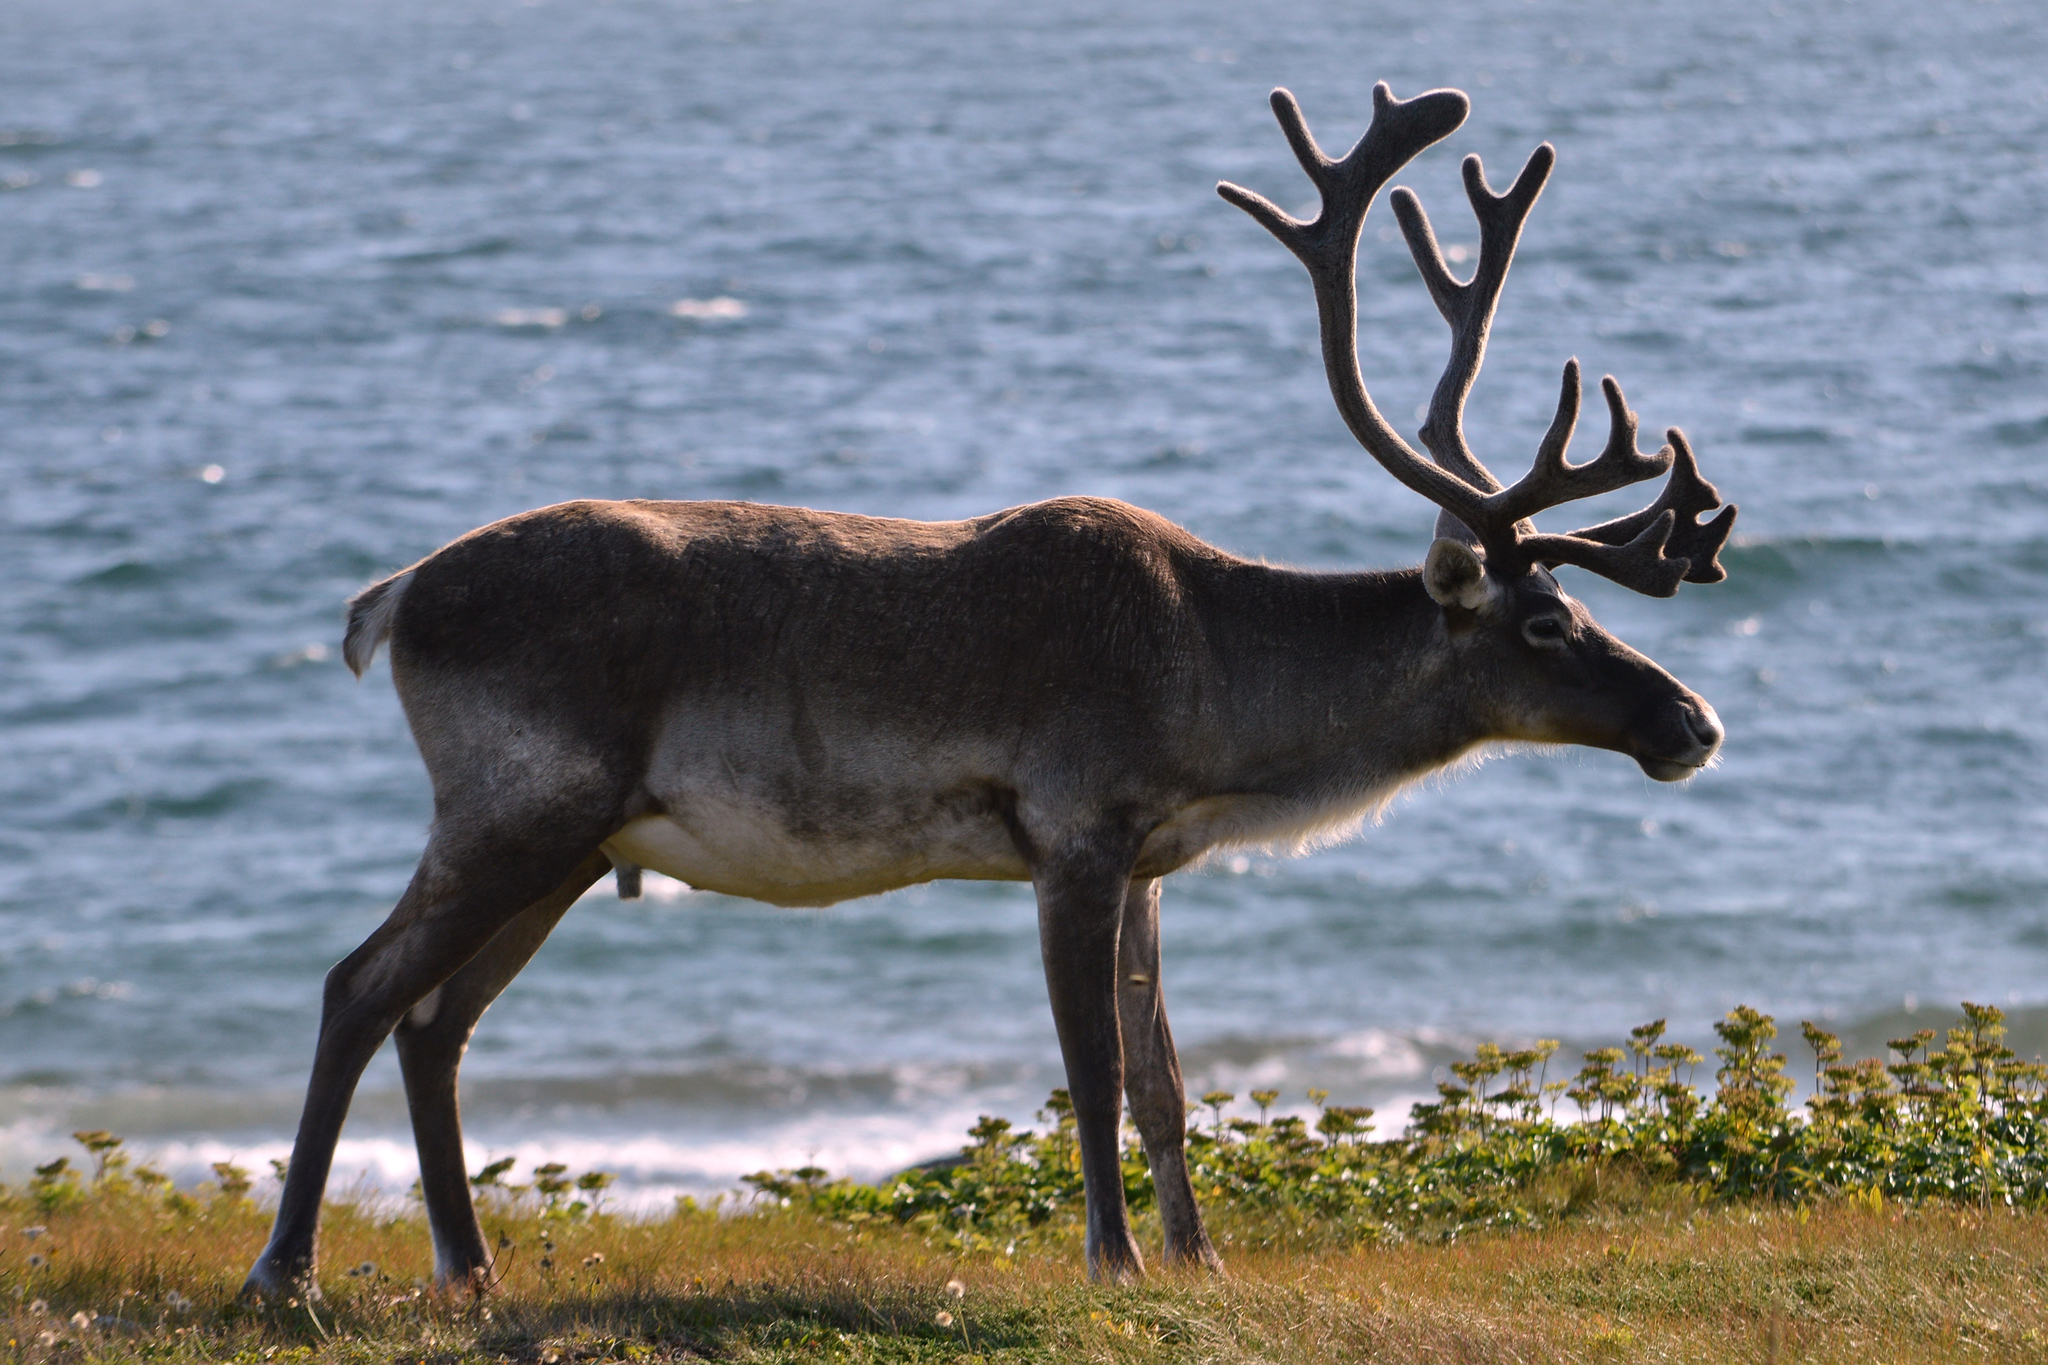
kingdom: Animalia
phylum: Chordata
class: Mammalia
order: Artiodactyla
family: Cervidae
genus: Rangifer
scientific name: Rangifer tarandus
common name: Reindeer
